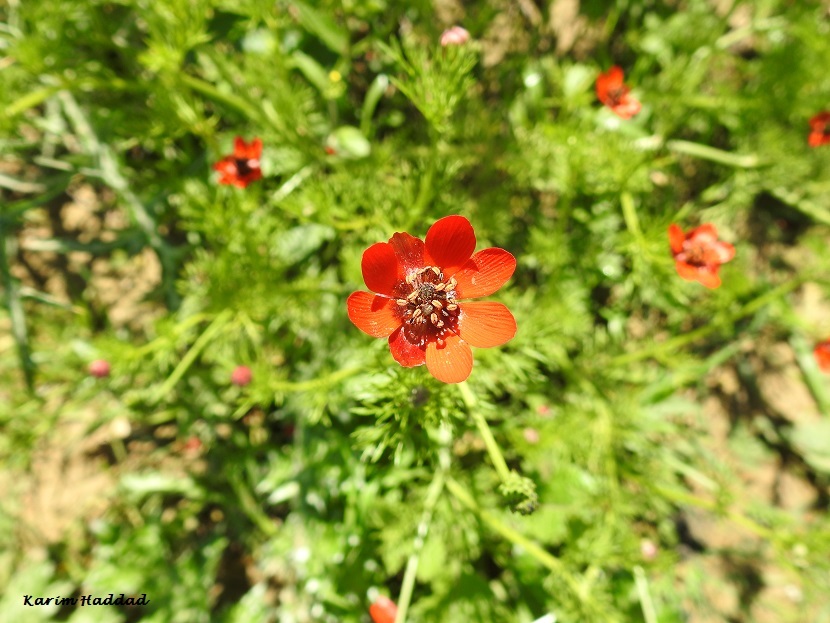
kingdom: Plantae
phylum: Tracheophyta
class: Magnoliopsida
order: Ranunculales
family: Ranunculaceae
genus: Adonis
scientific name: Adonis annua
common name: Pheasant's-eye
